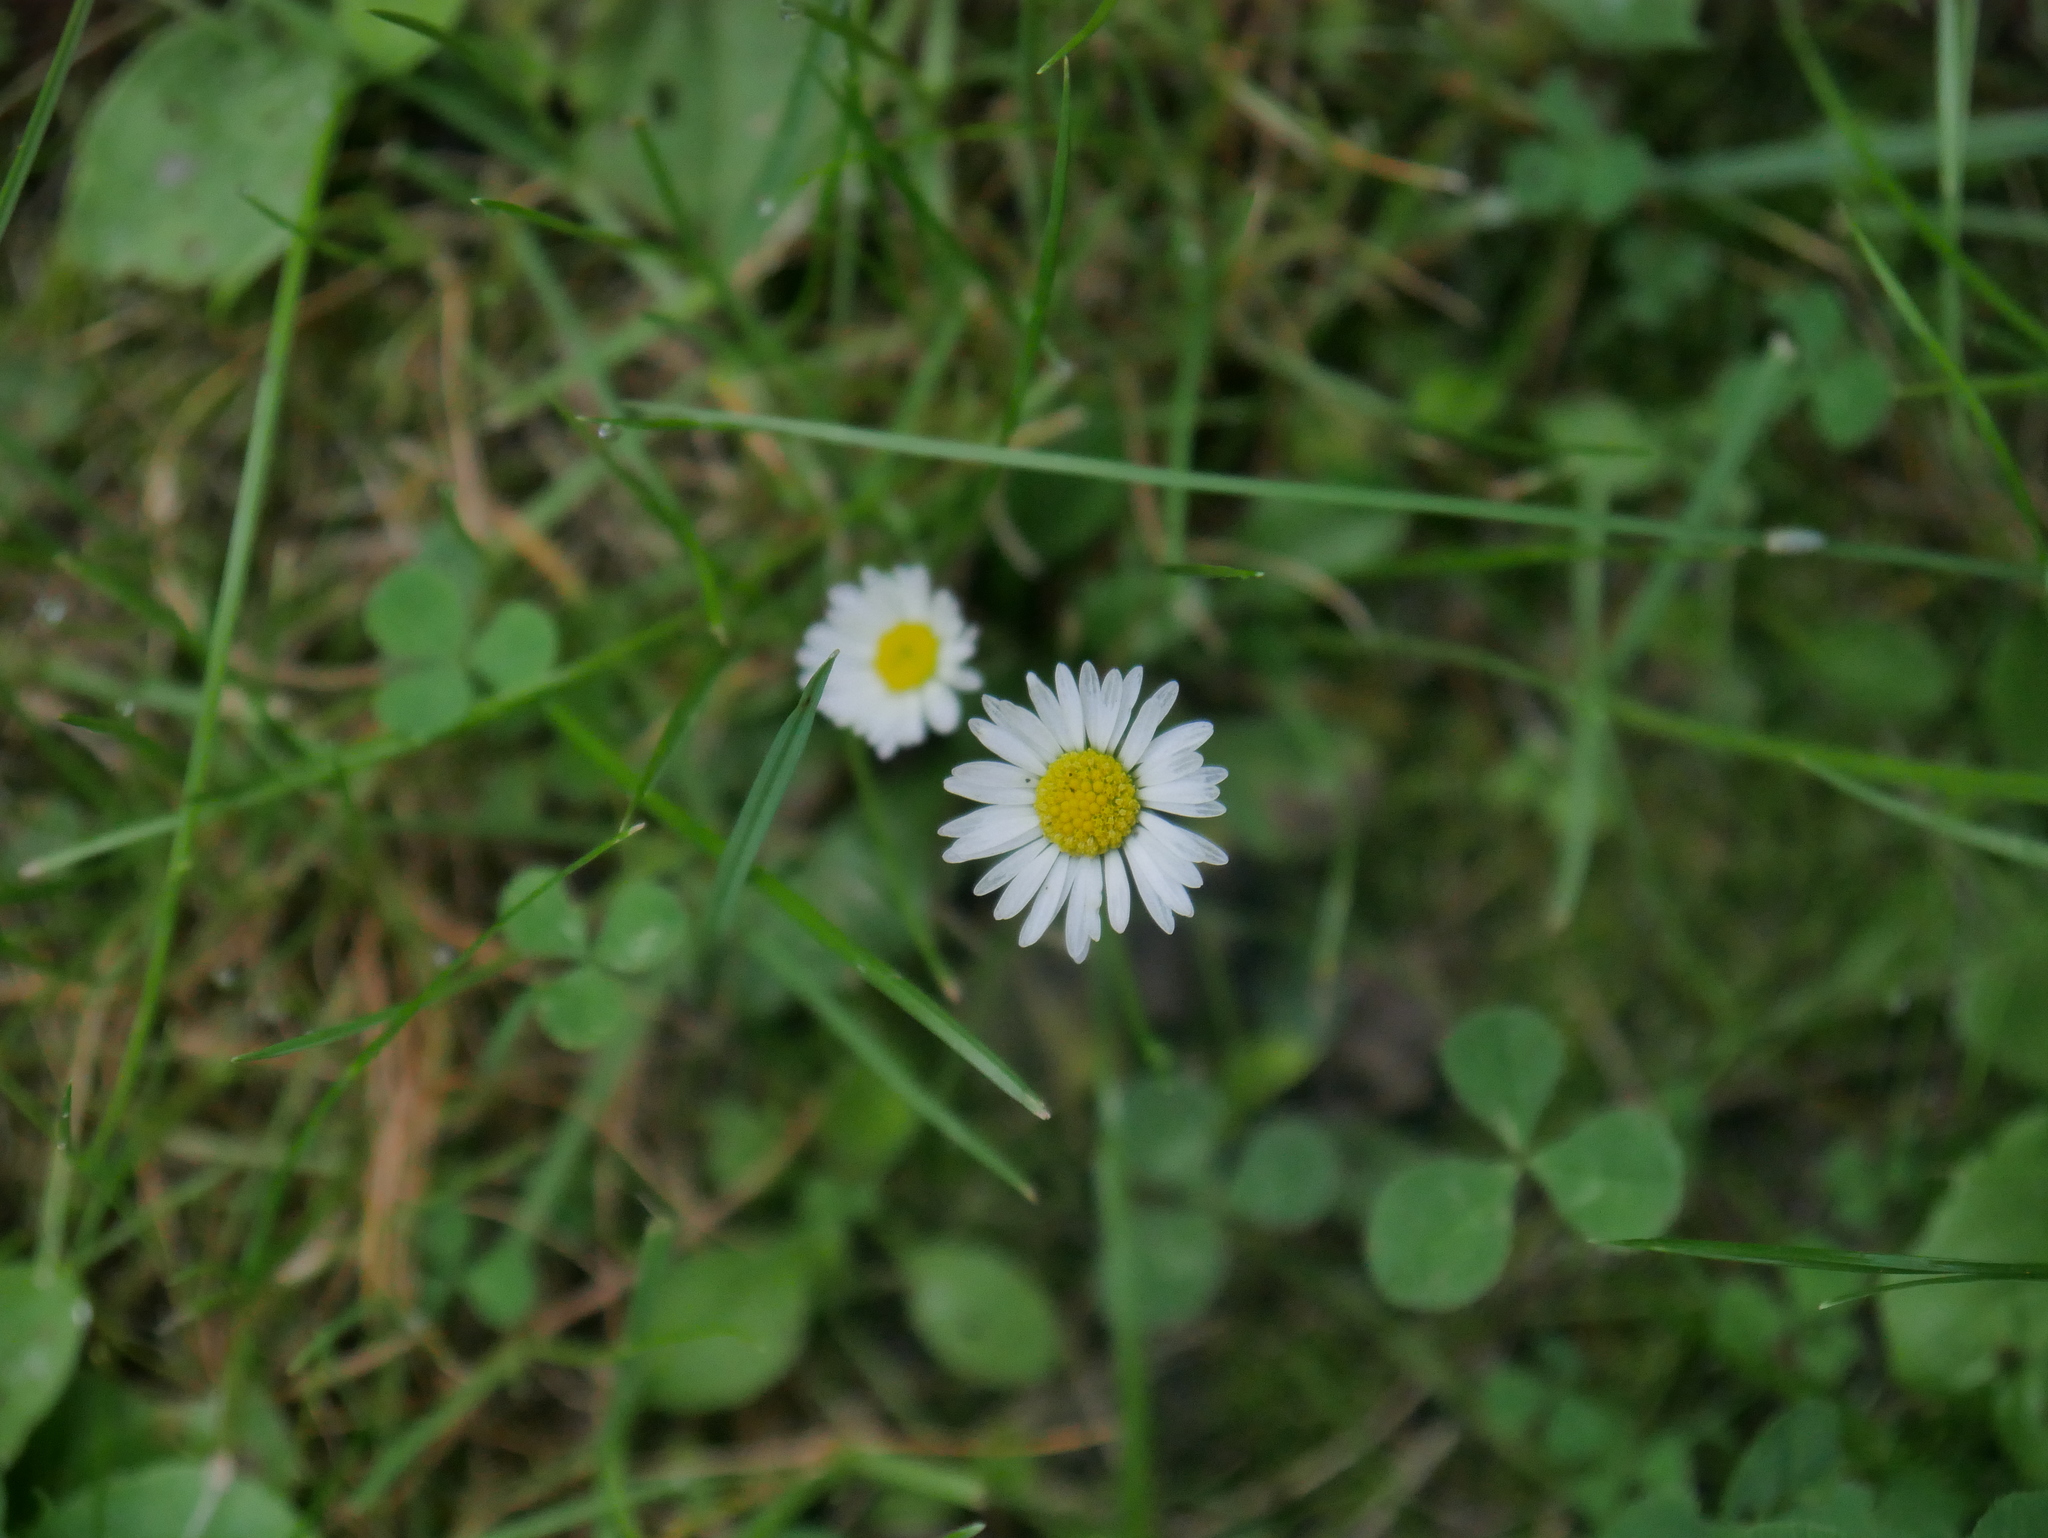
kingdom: Plantae
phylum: Tracheophyta
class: Magnoliopsida
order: Asterales
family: Asteraceae
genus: Bellis
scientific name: Bellis perennis
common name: Lawndaisy
